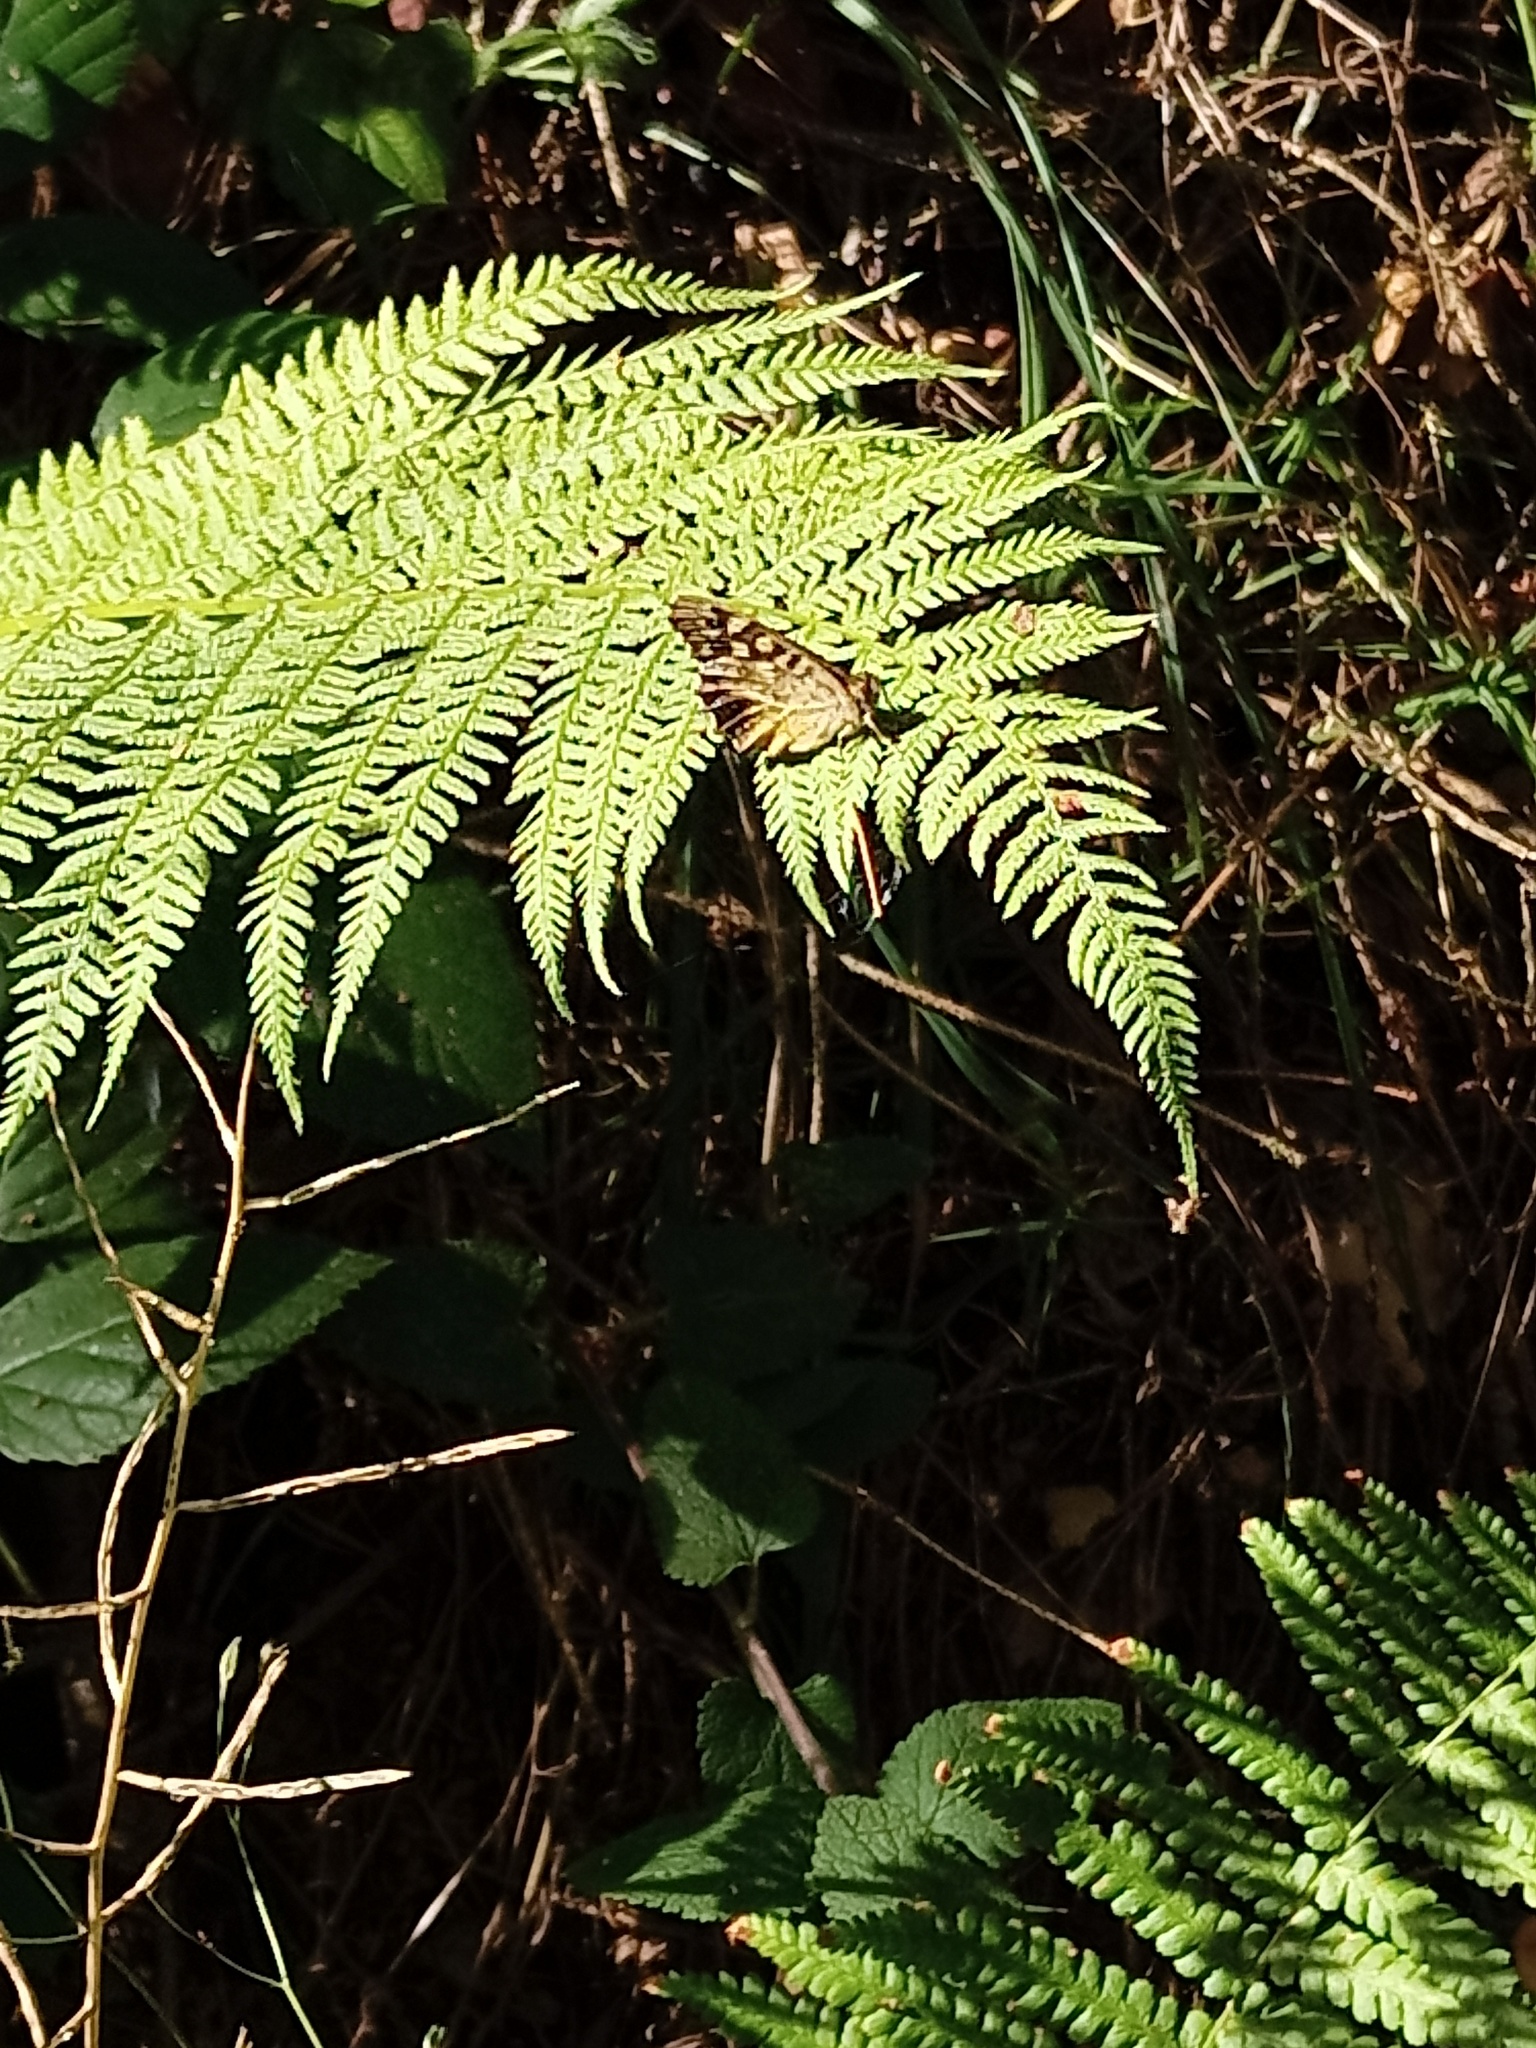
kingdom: Animalia
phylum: Arthropoda
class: Insecta
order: Lepidoptera
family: Nymphalidae
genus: Pararge
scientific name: Pararge aegeria
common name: Speckled wood
